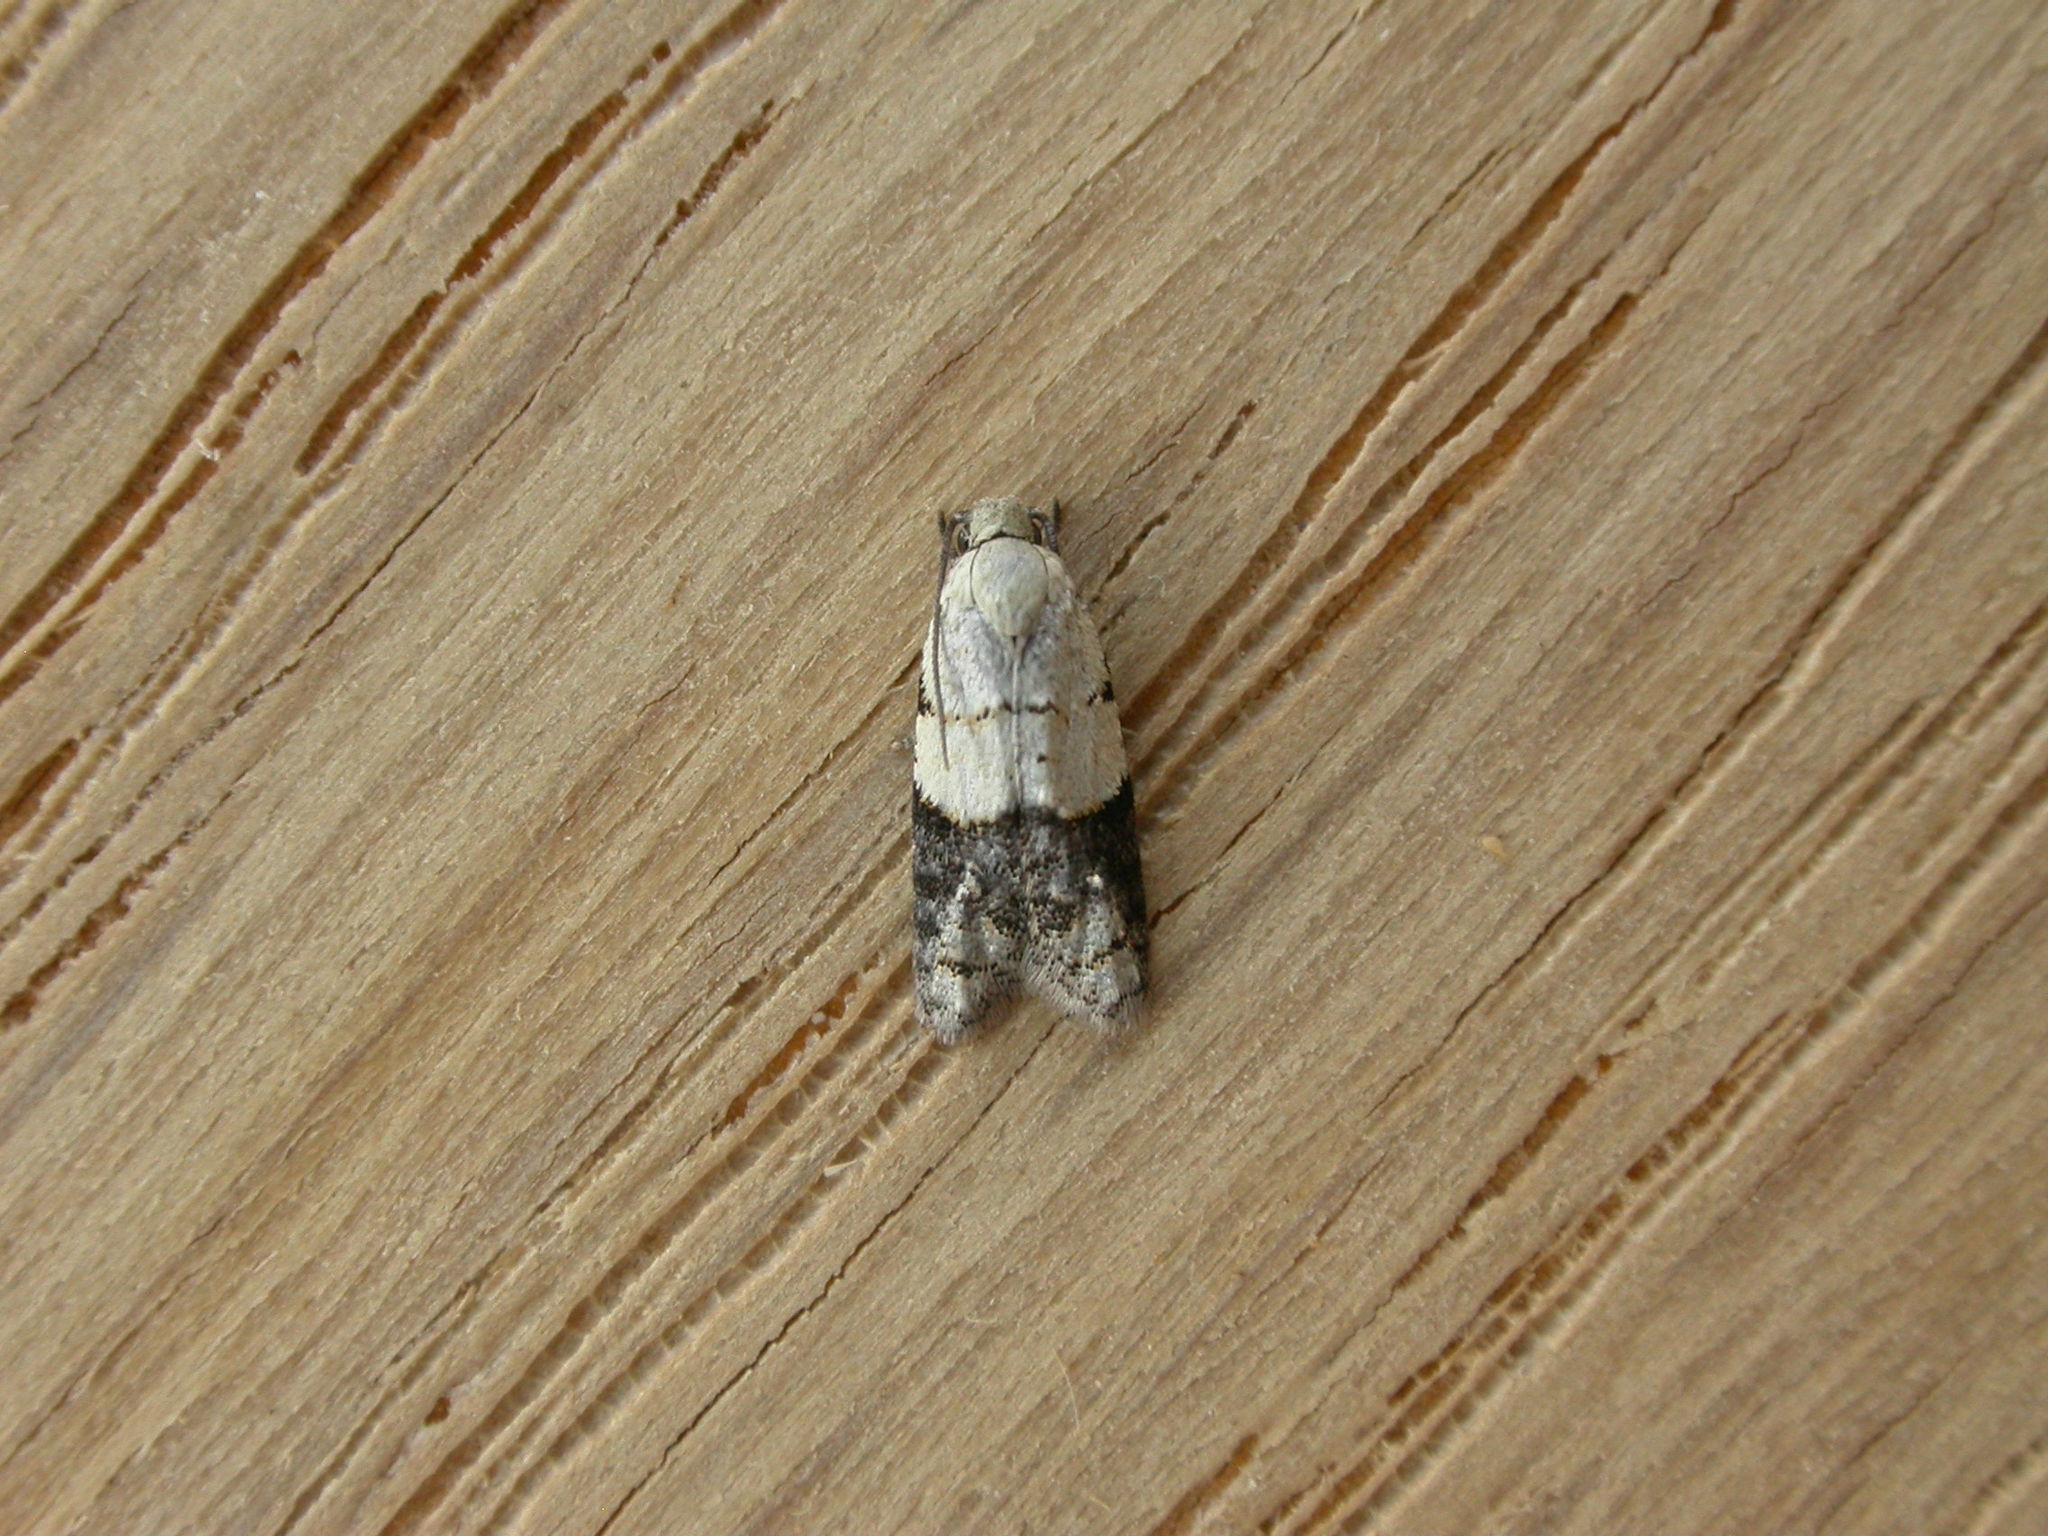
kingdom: Animalia
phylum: Arthropoda
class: Insecta
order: Lepidoptera
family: Tortricidae
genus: Tracholena
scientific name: Tracholena sulfurosa
